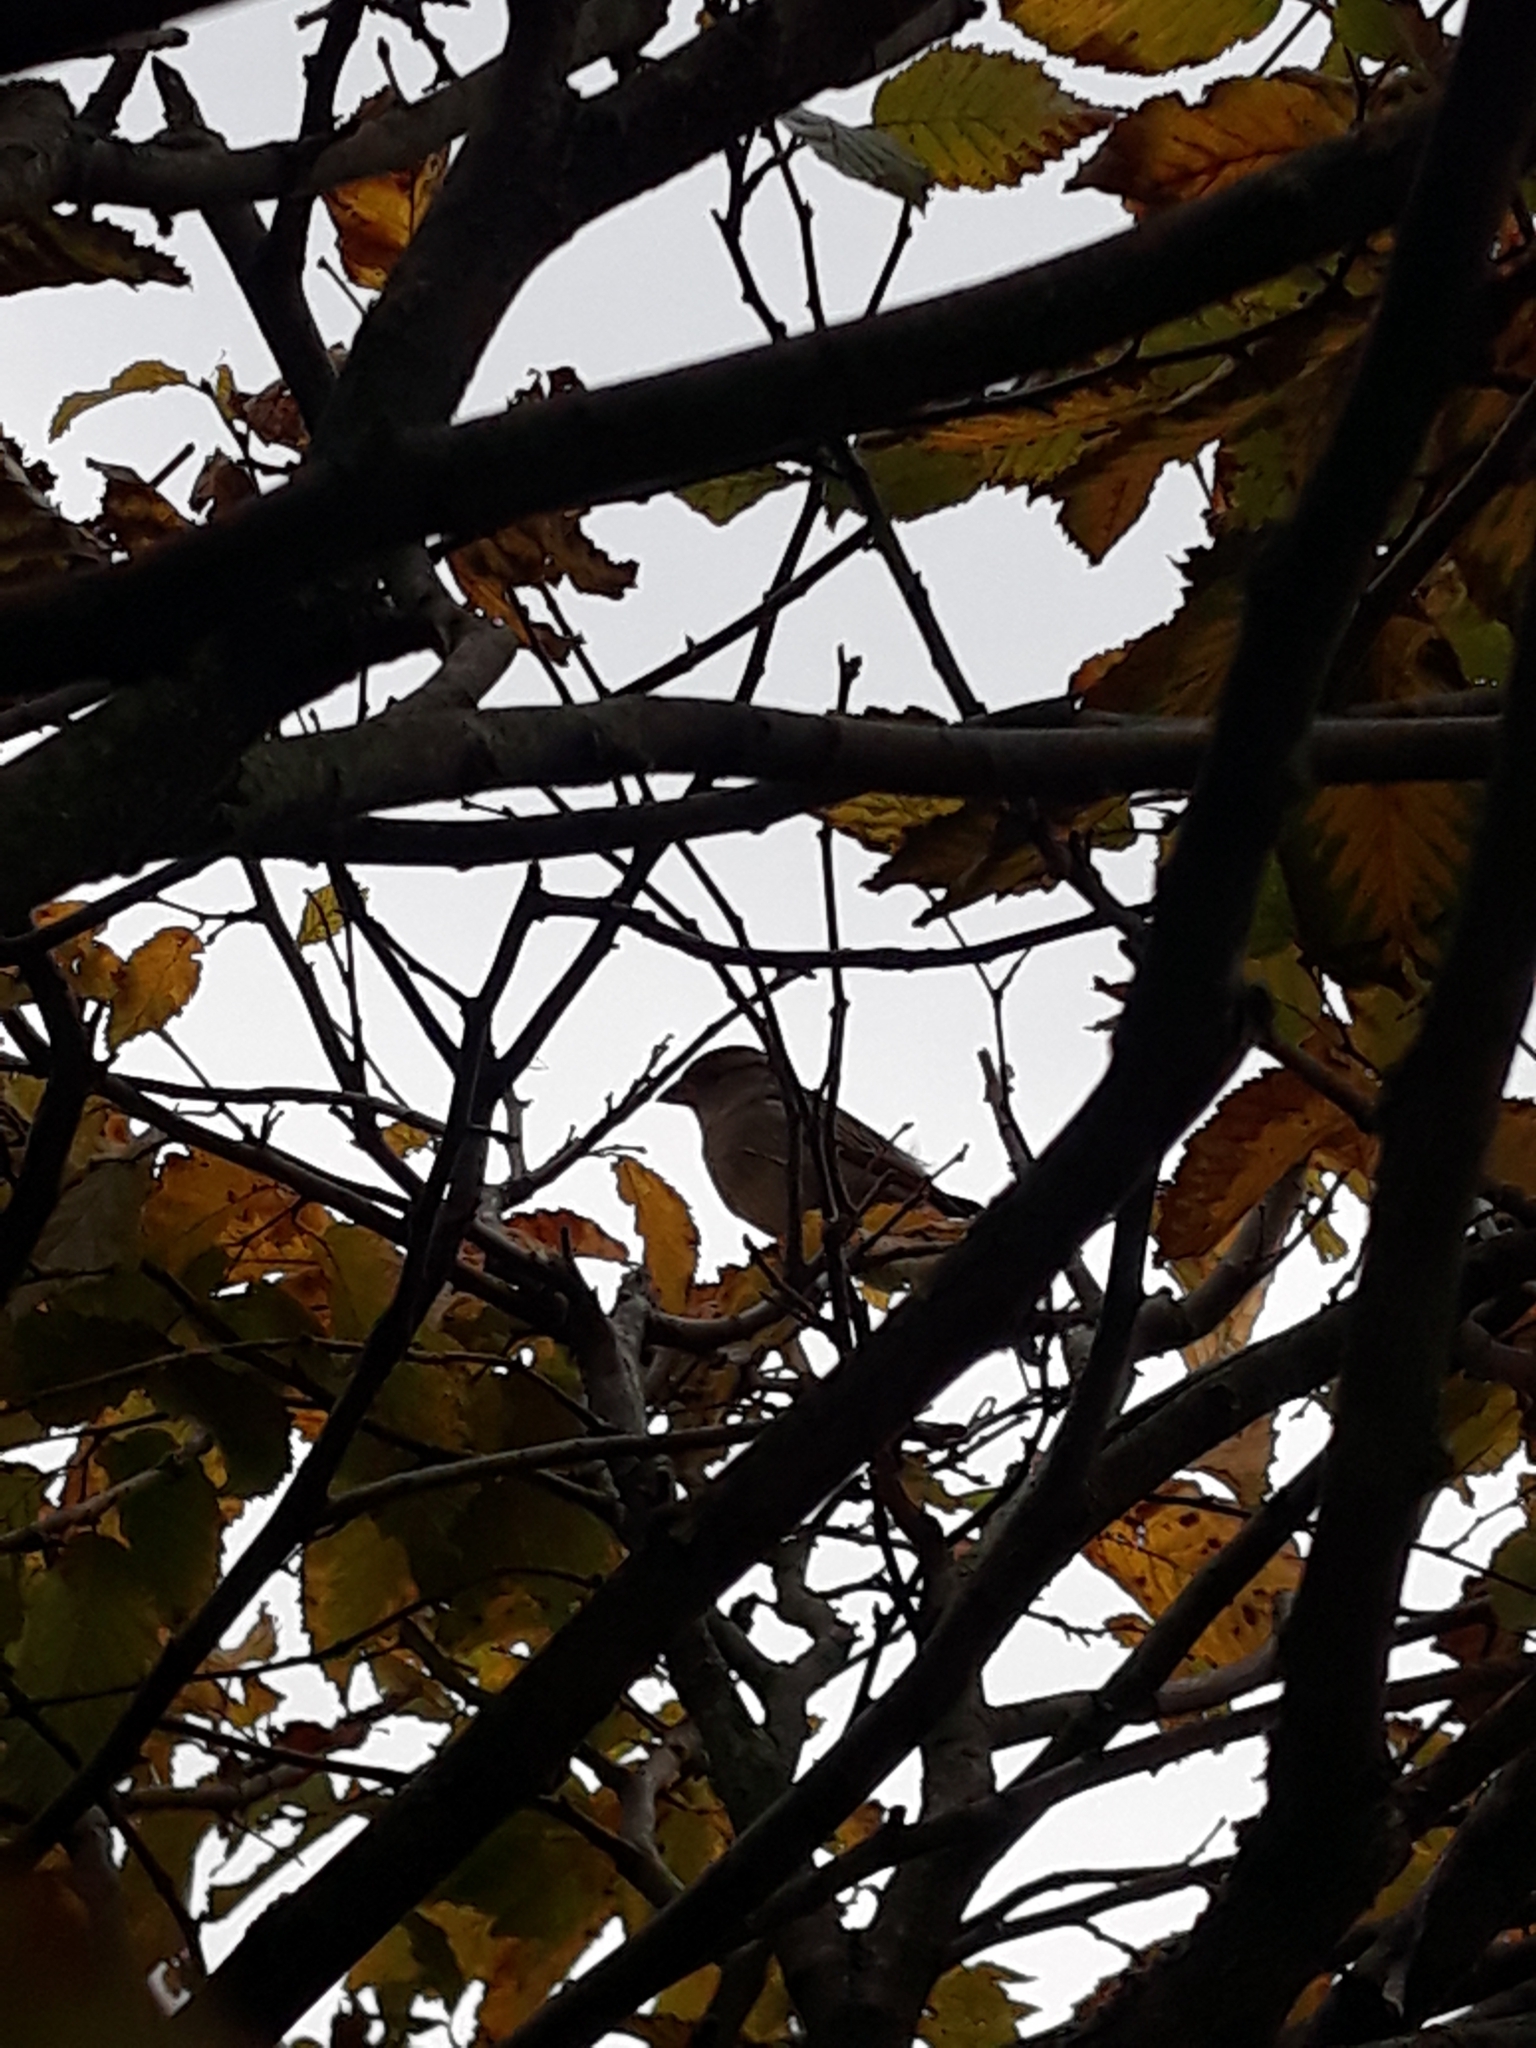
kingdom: Animalia
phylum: Chordata
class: Aves
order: Passeriformes
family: Passeridae
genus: Passer
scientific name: Passer domesticus
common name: House sparrow
